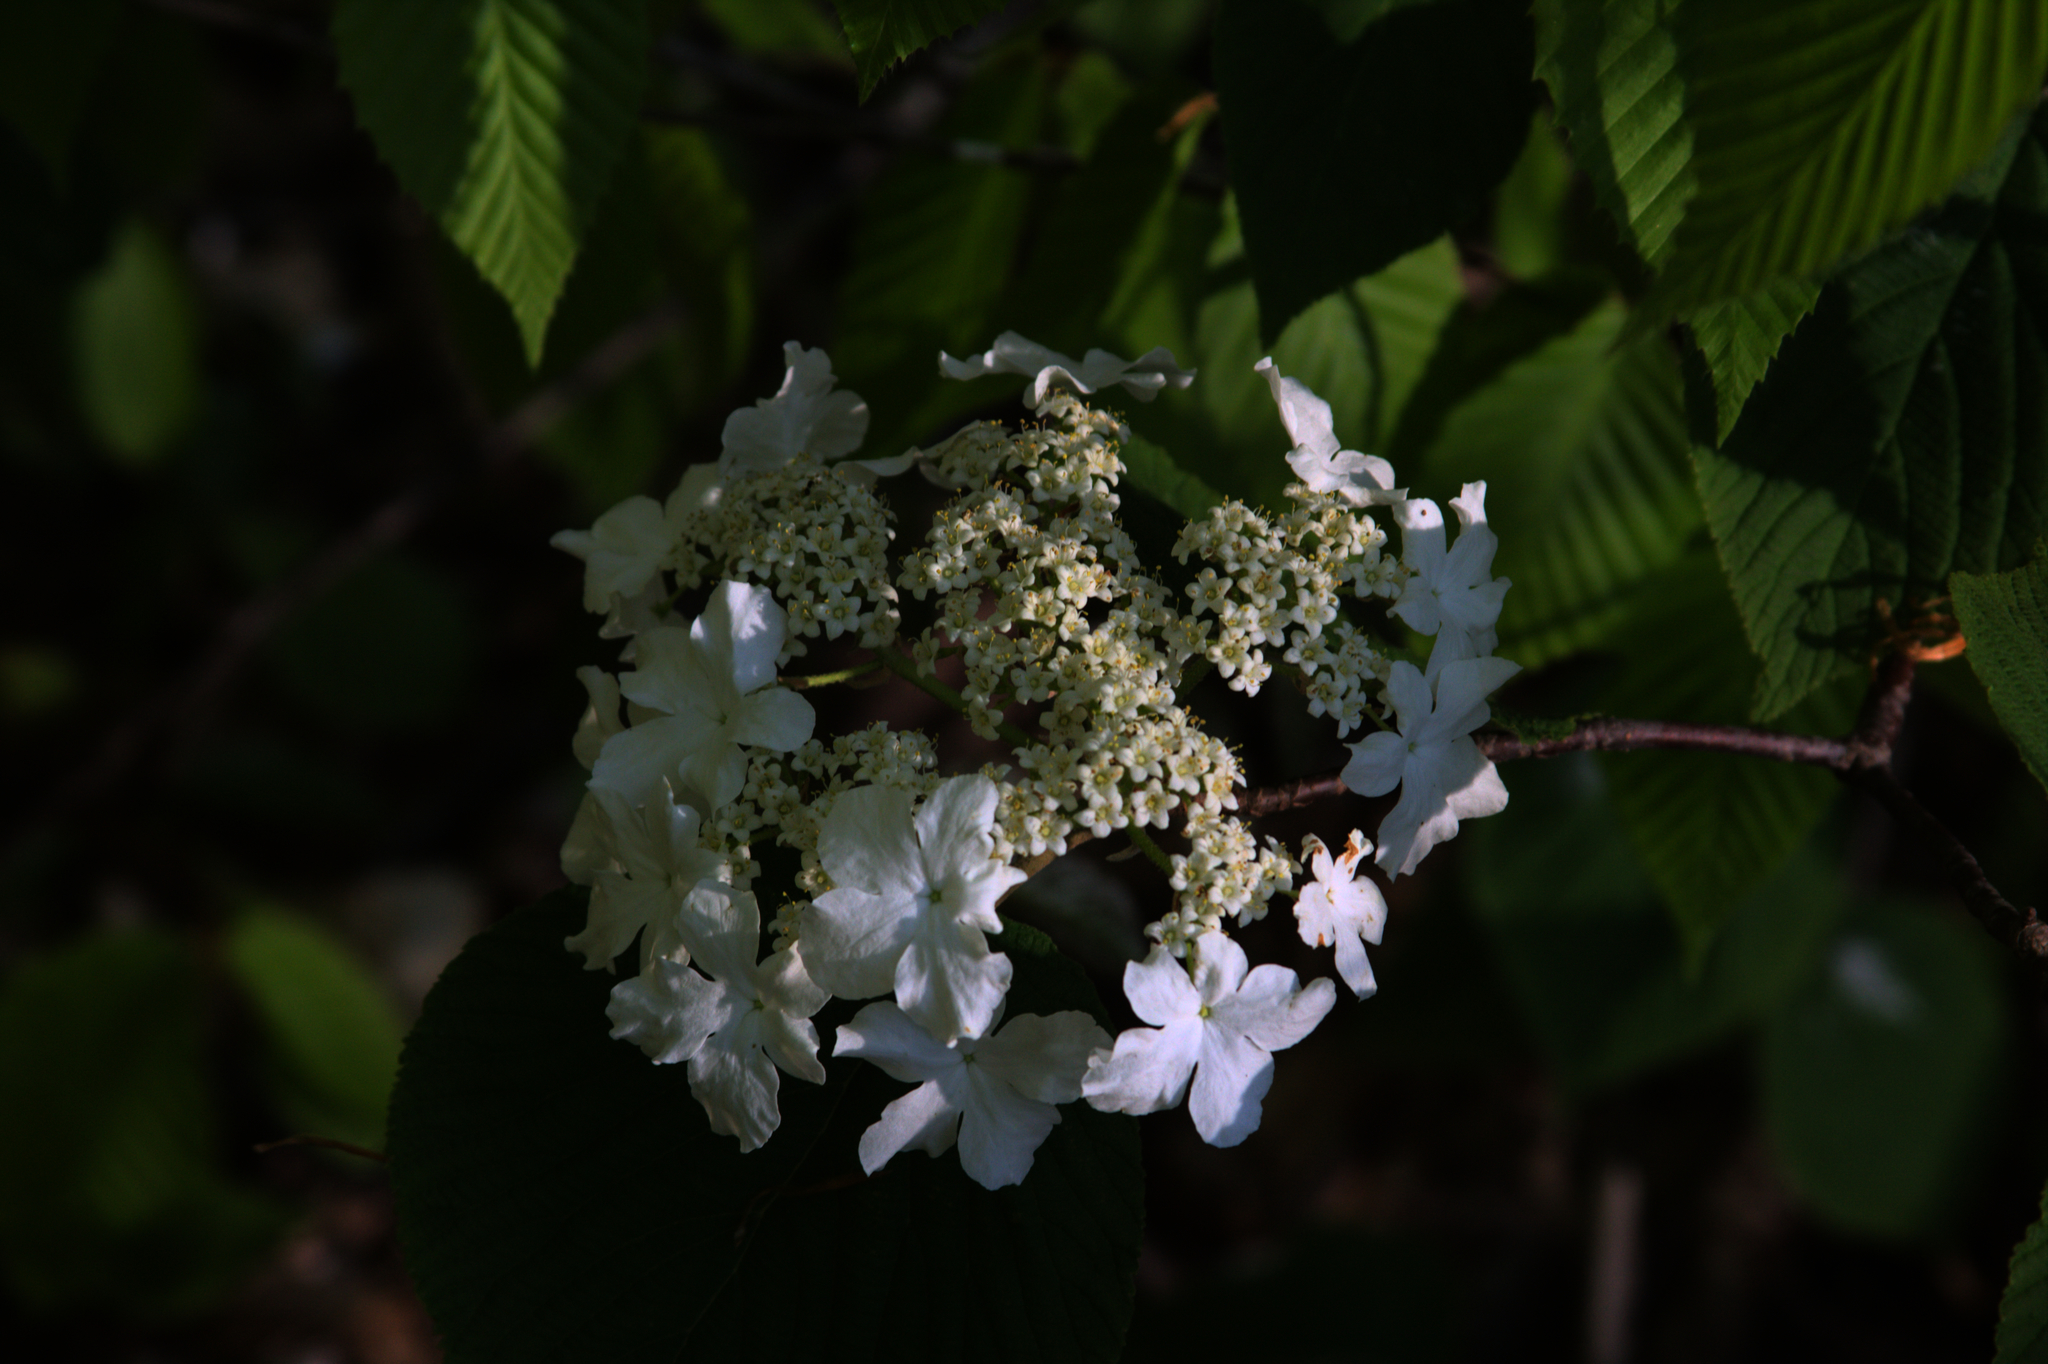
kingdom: Plantae
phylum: Tracheophyta
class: Magnoliopsida
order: Dipsacales
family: Viburnaceae
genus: Viburnum
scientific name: Viburnum lantanoides
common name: Hobblebush
